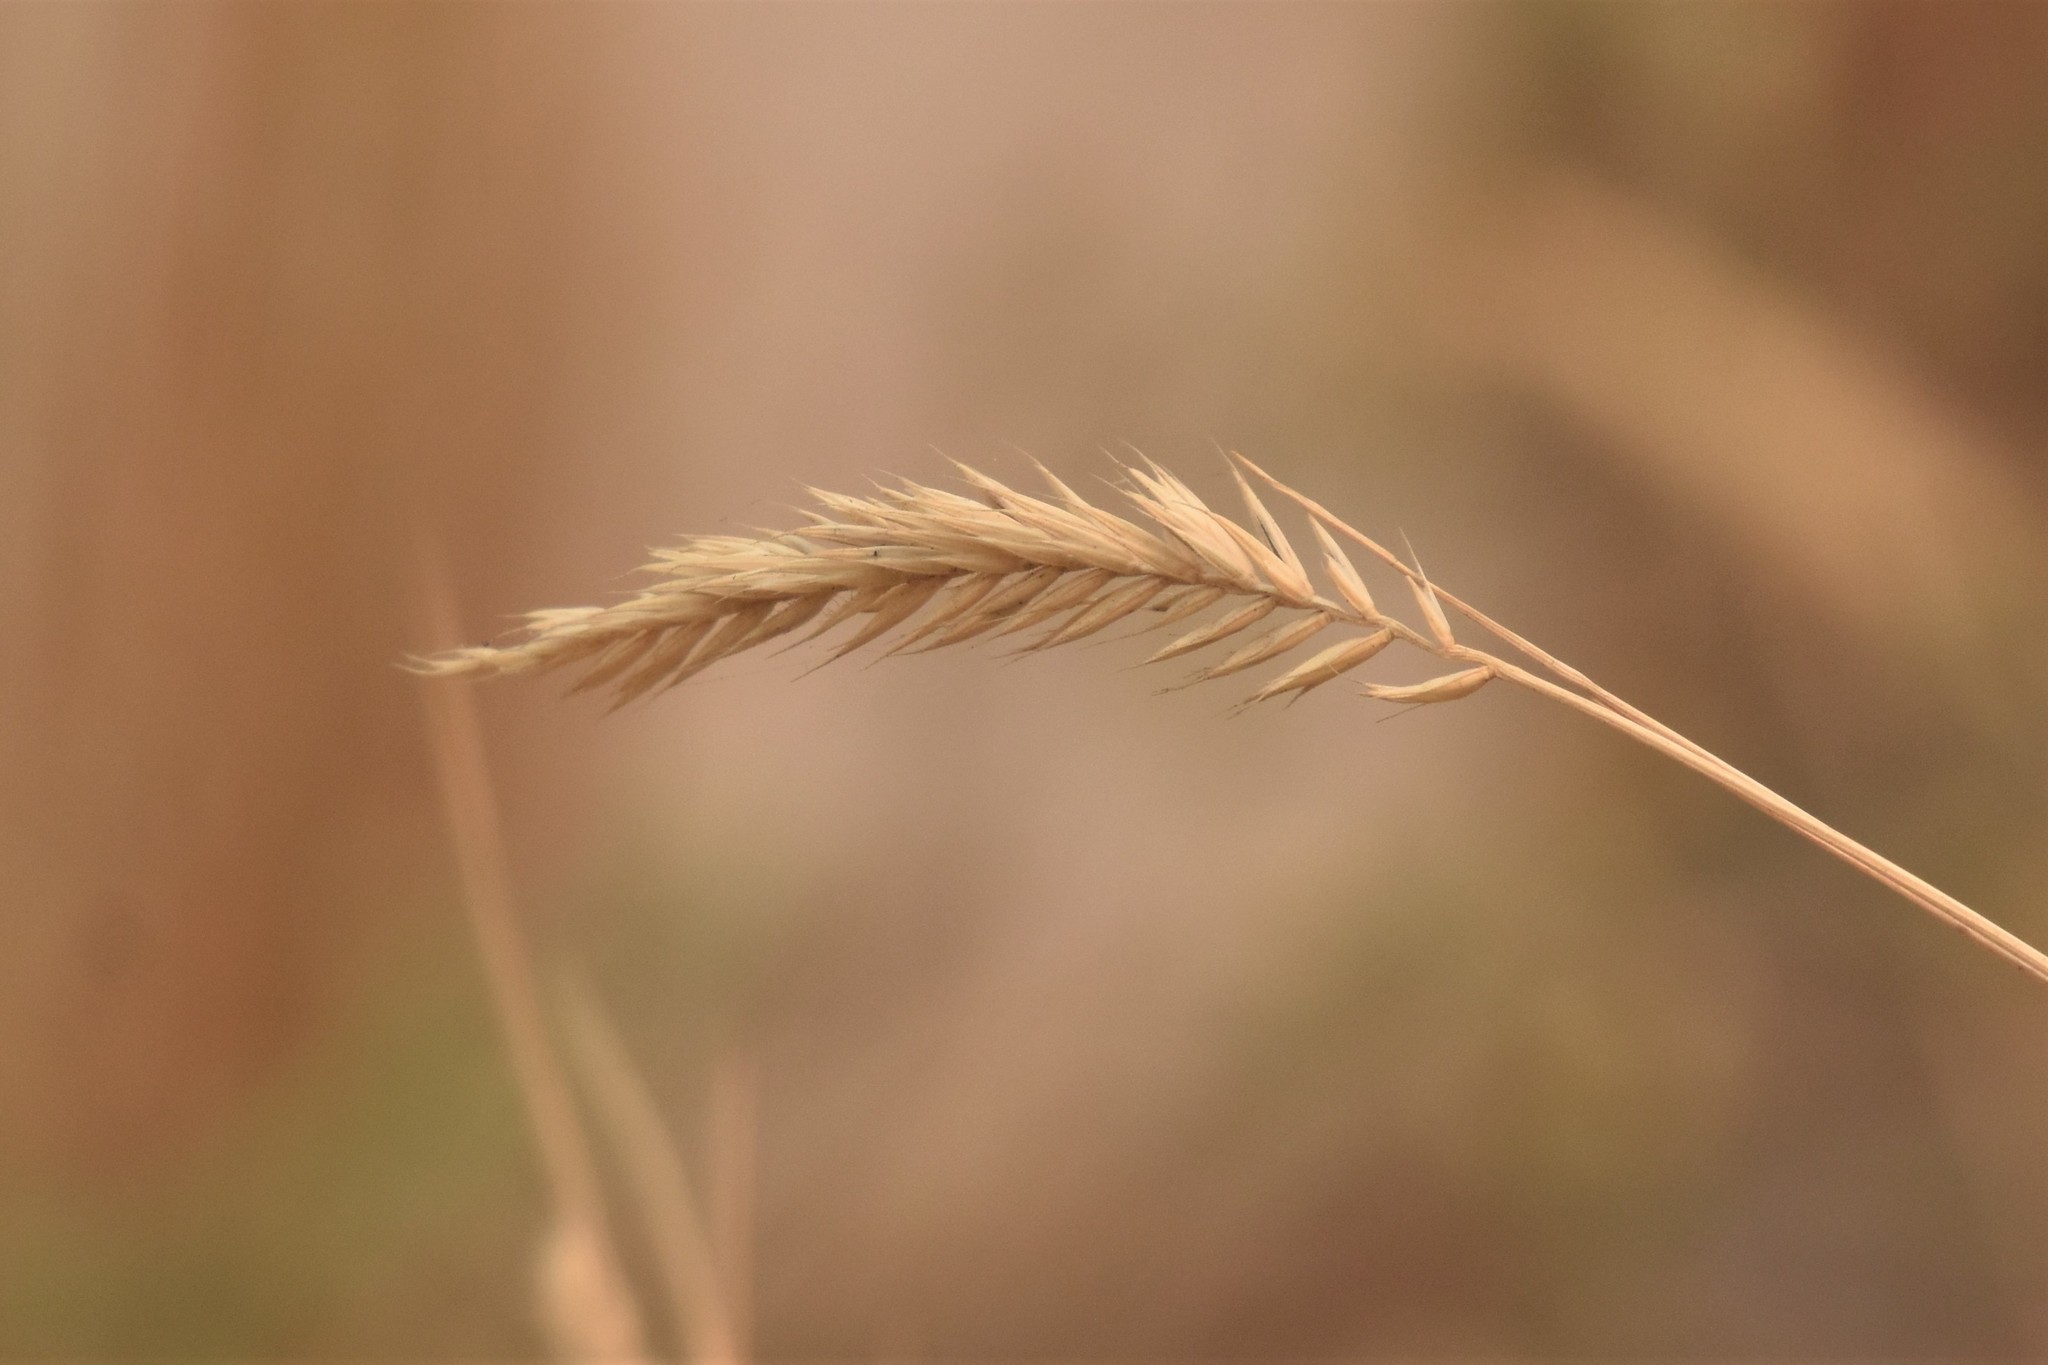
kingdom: Plantae
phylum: Tracheophyta
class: Liliopsida
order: Poales
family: Poaceae
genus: Agropyron
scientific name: Agropyron cristatum
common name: Crested wheatgrass
